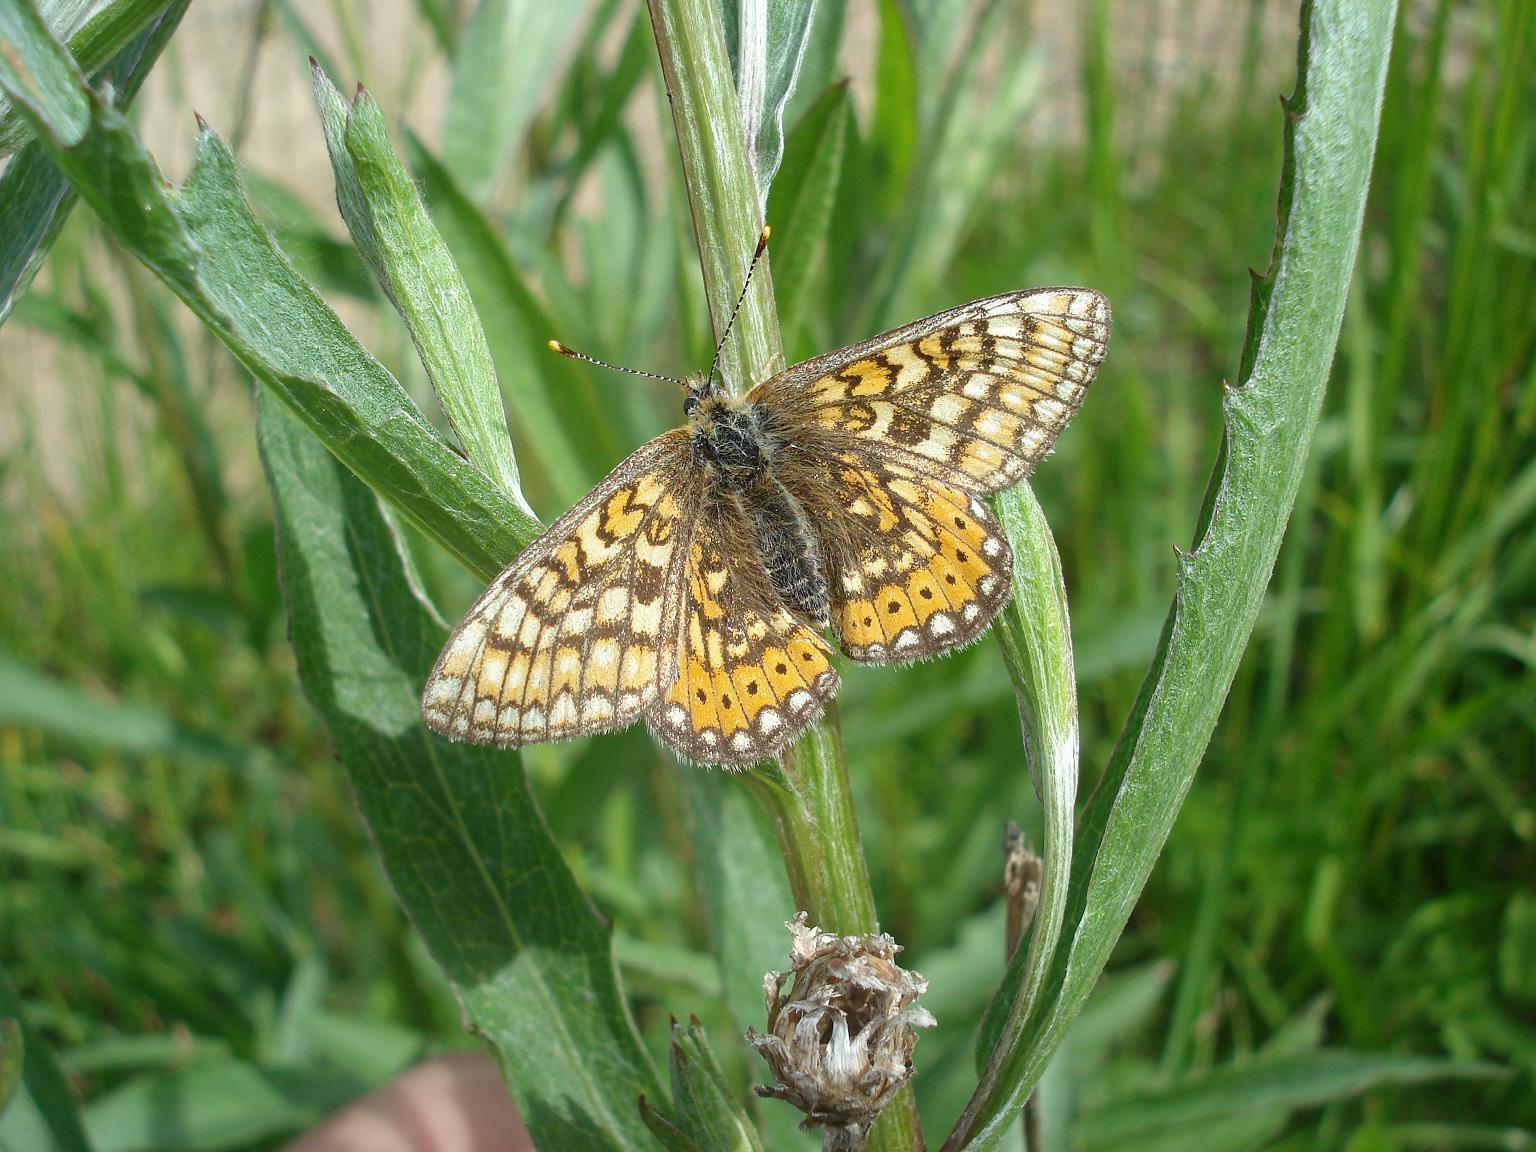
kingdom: Animalia
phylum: Arthropoda
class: Insecta
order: Lepidoptera
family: Nymphalidae
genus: Euphydryas
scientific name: Euphydryas aurinia
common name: Marsh fritillary
